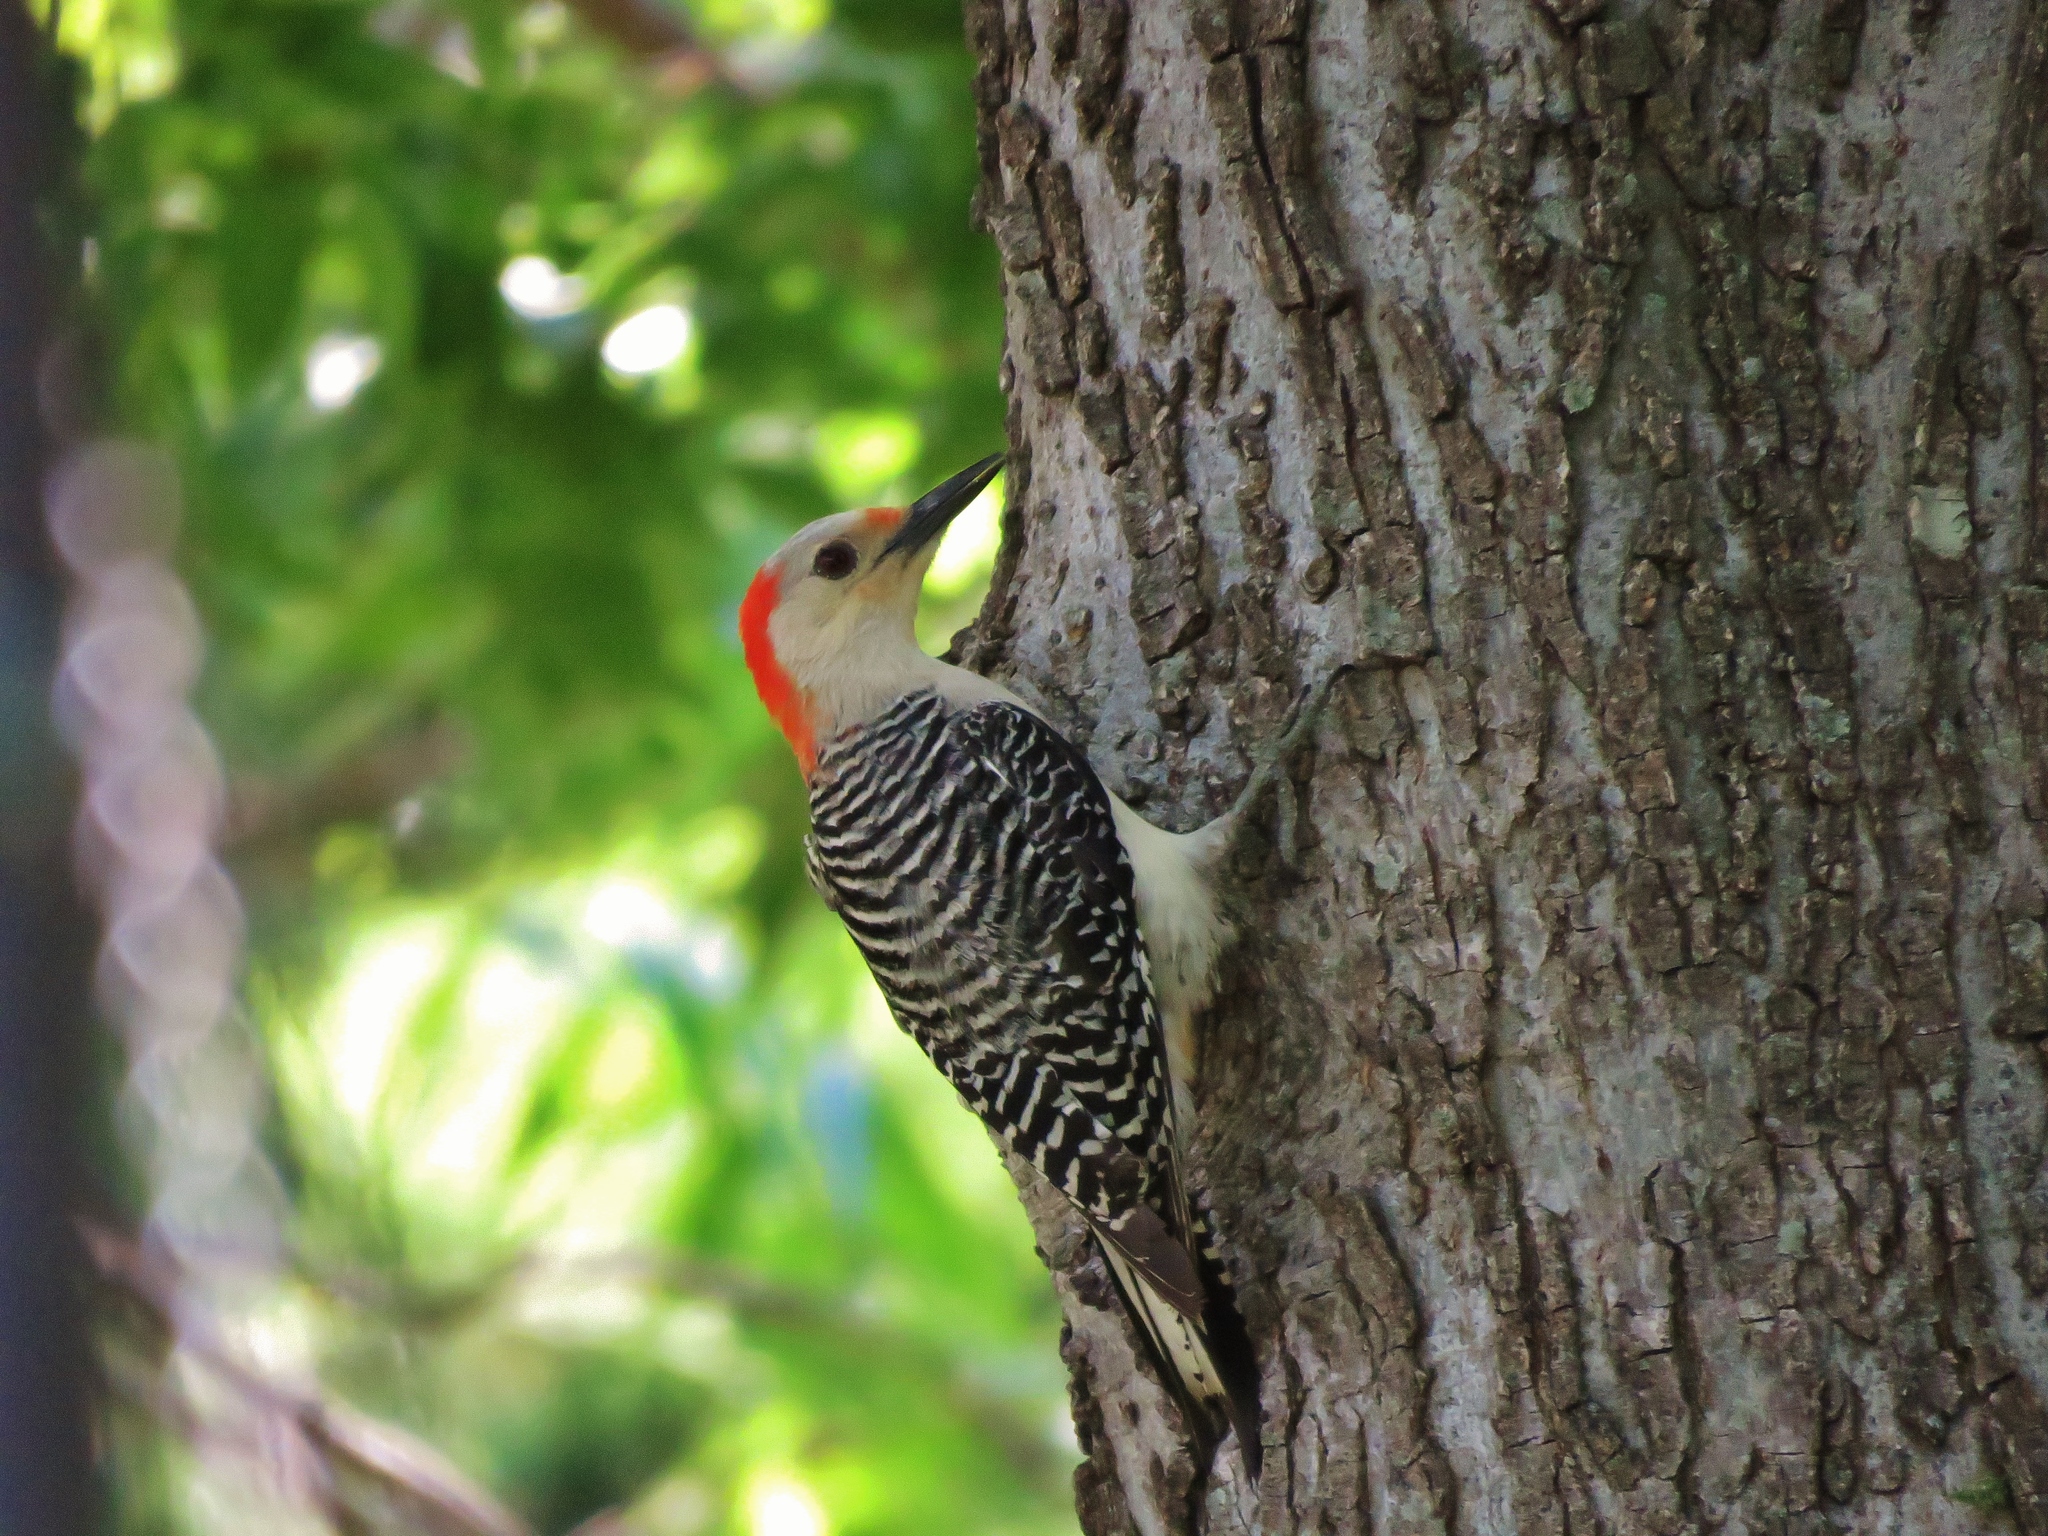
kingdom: Animalia
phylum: Chordata
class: Aves
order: Piciformes
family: Picidae
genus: Melanerpes
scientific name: Melanerpes carolinus
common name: Red-bellied woodpecker
